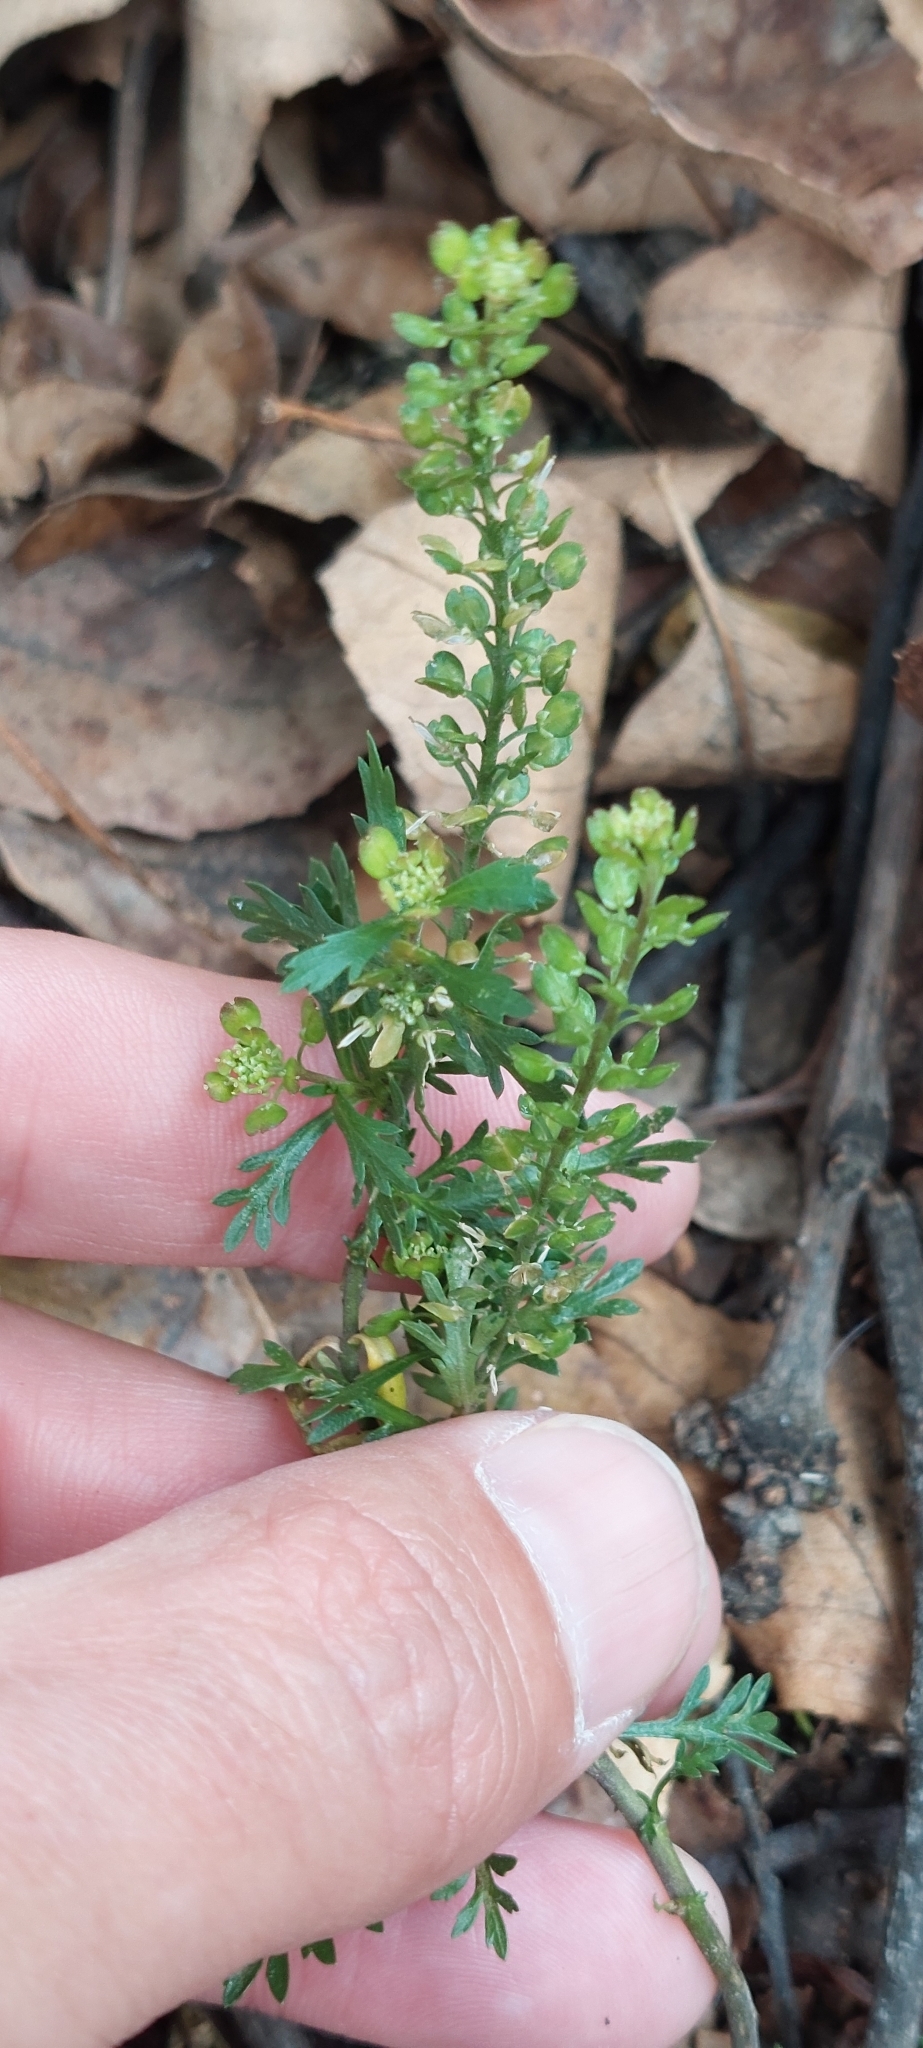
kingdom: Plantae
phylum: Tracheophyta
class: Magnoliopsida
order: Brassicales
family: Brassicaceae
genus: Lepidium
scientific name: Lepidium bipinnatifidum
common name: Wayside pepperwort
